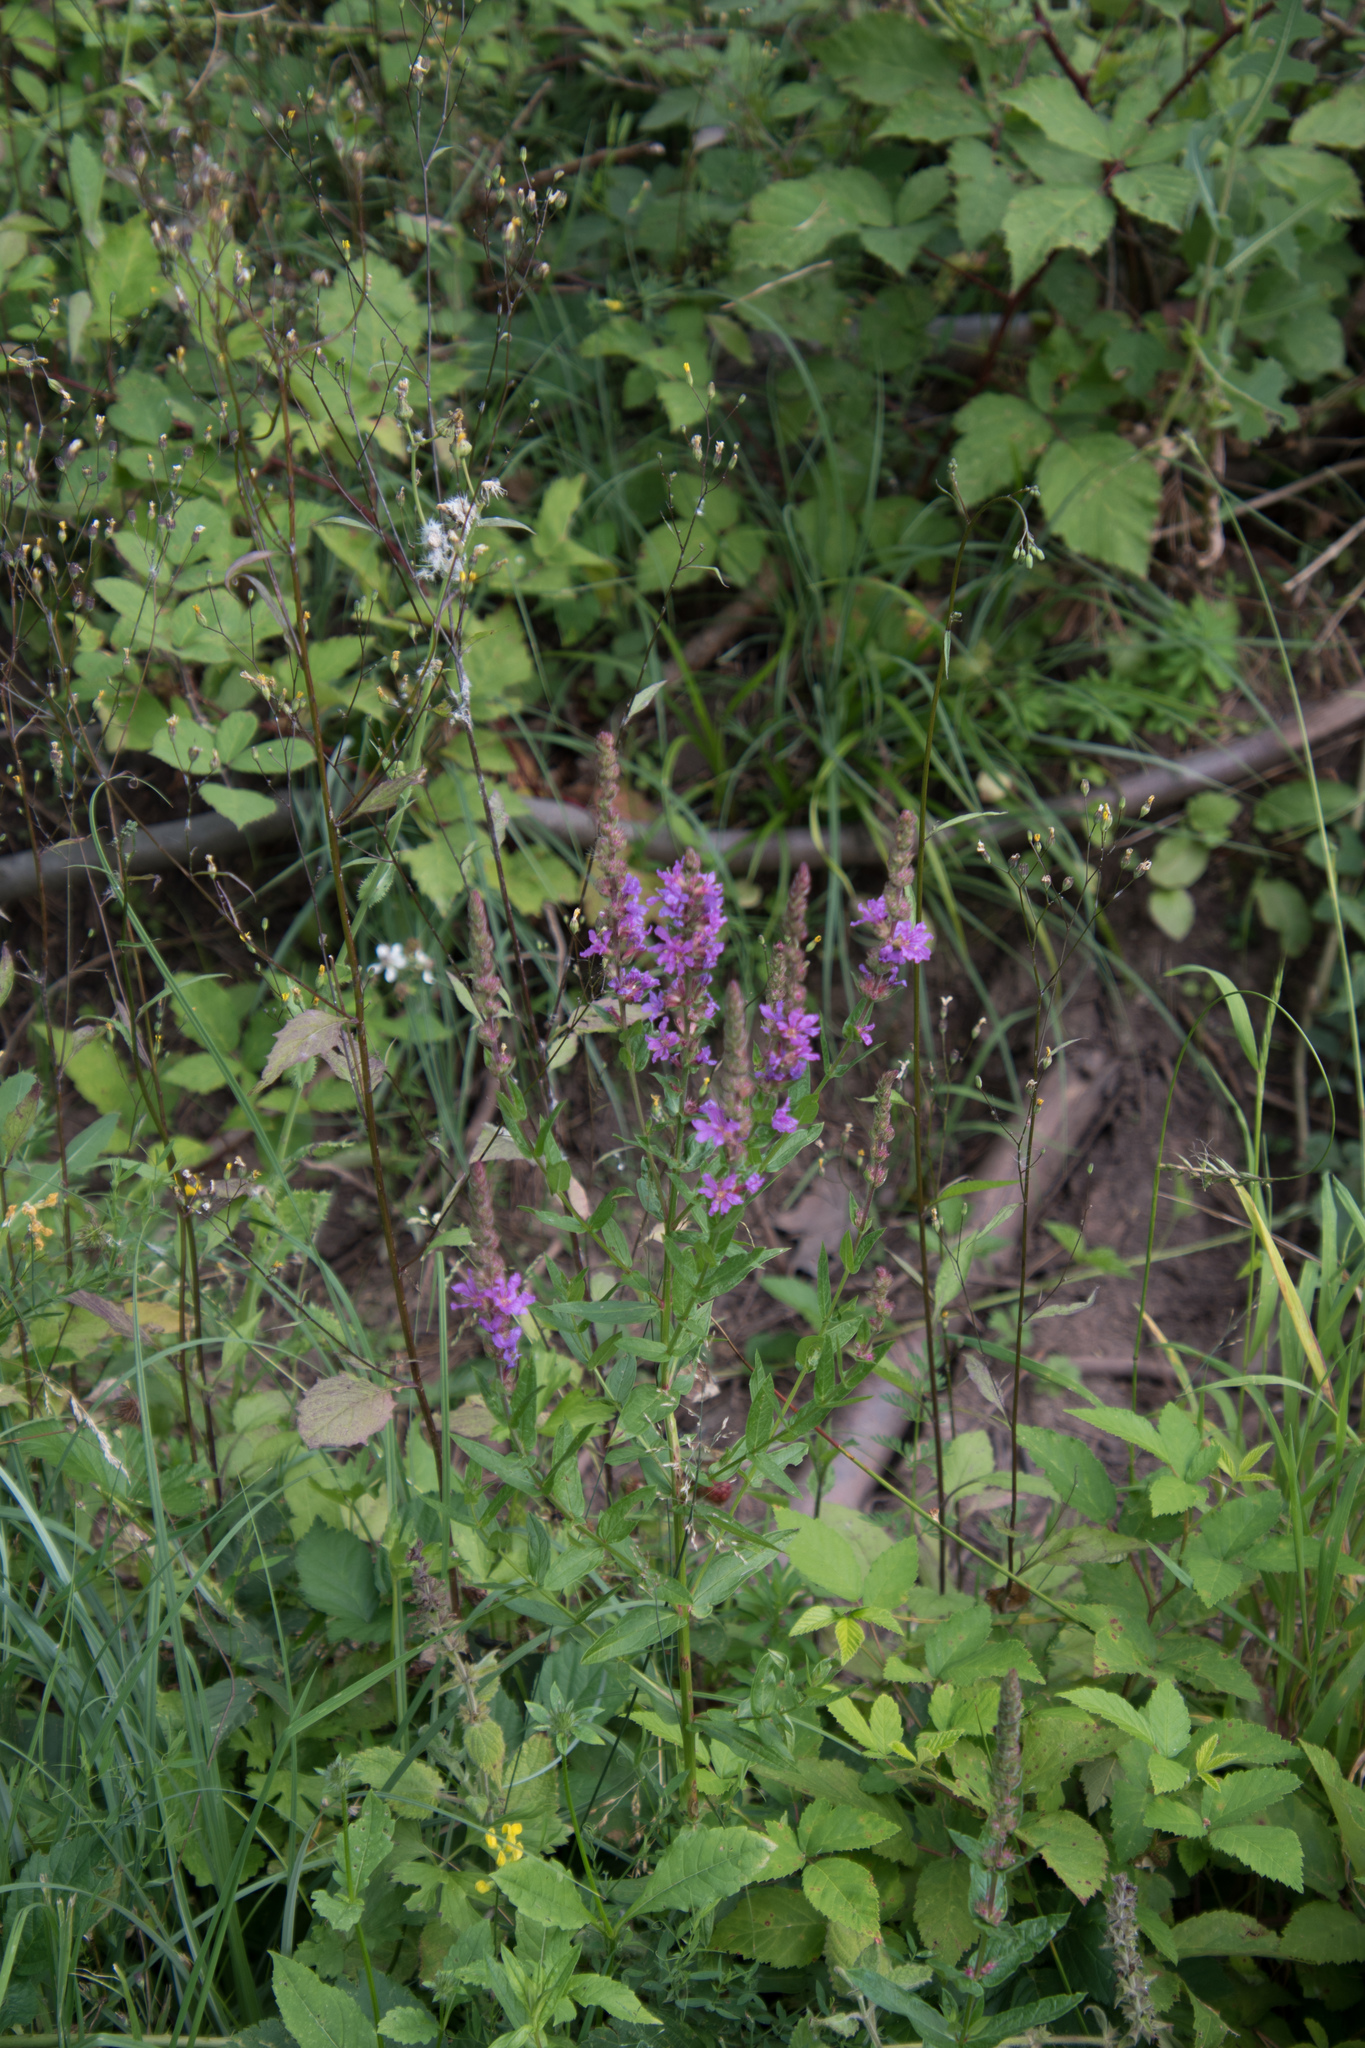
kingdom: Plantae
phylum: Tracheophyta
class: Magnoliopsida
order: Myrtales
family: Lythraceae
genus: Lythrum
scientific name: Lythrum salicaria
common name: Purple loosestrife
